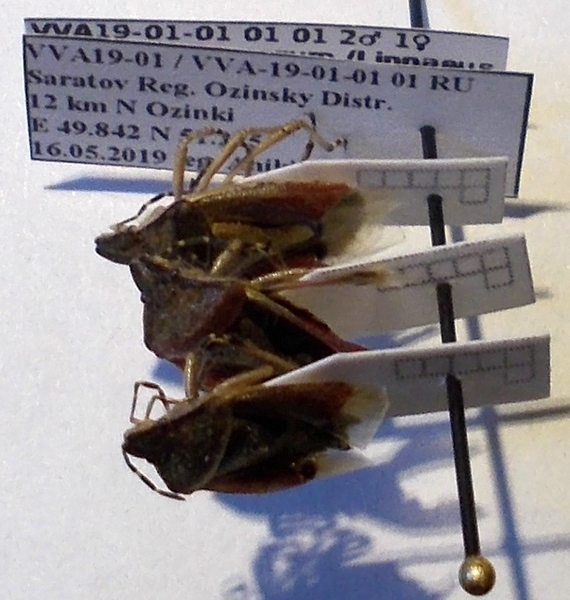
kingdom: Animalia
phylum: Arthropoda
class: Insecta
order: Hemiptera
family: Pentatomidae
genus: Dolycoris
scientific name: Dolycoris baccarum
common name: Sloe bug
